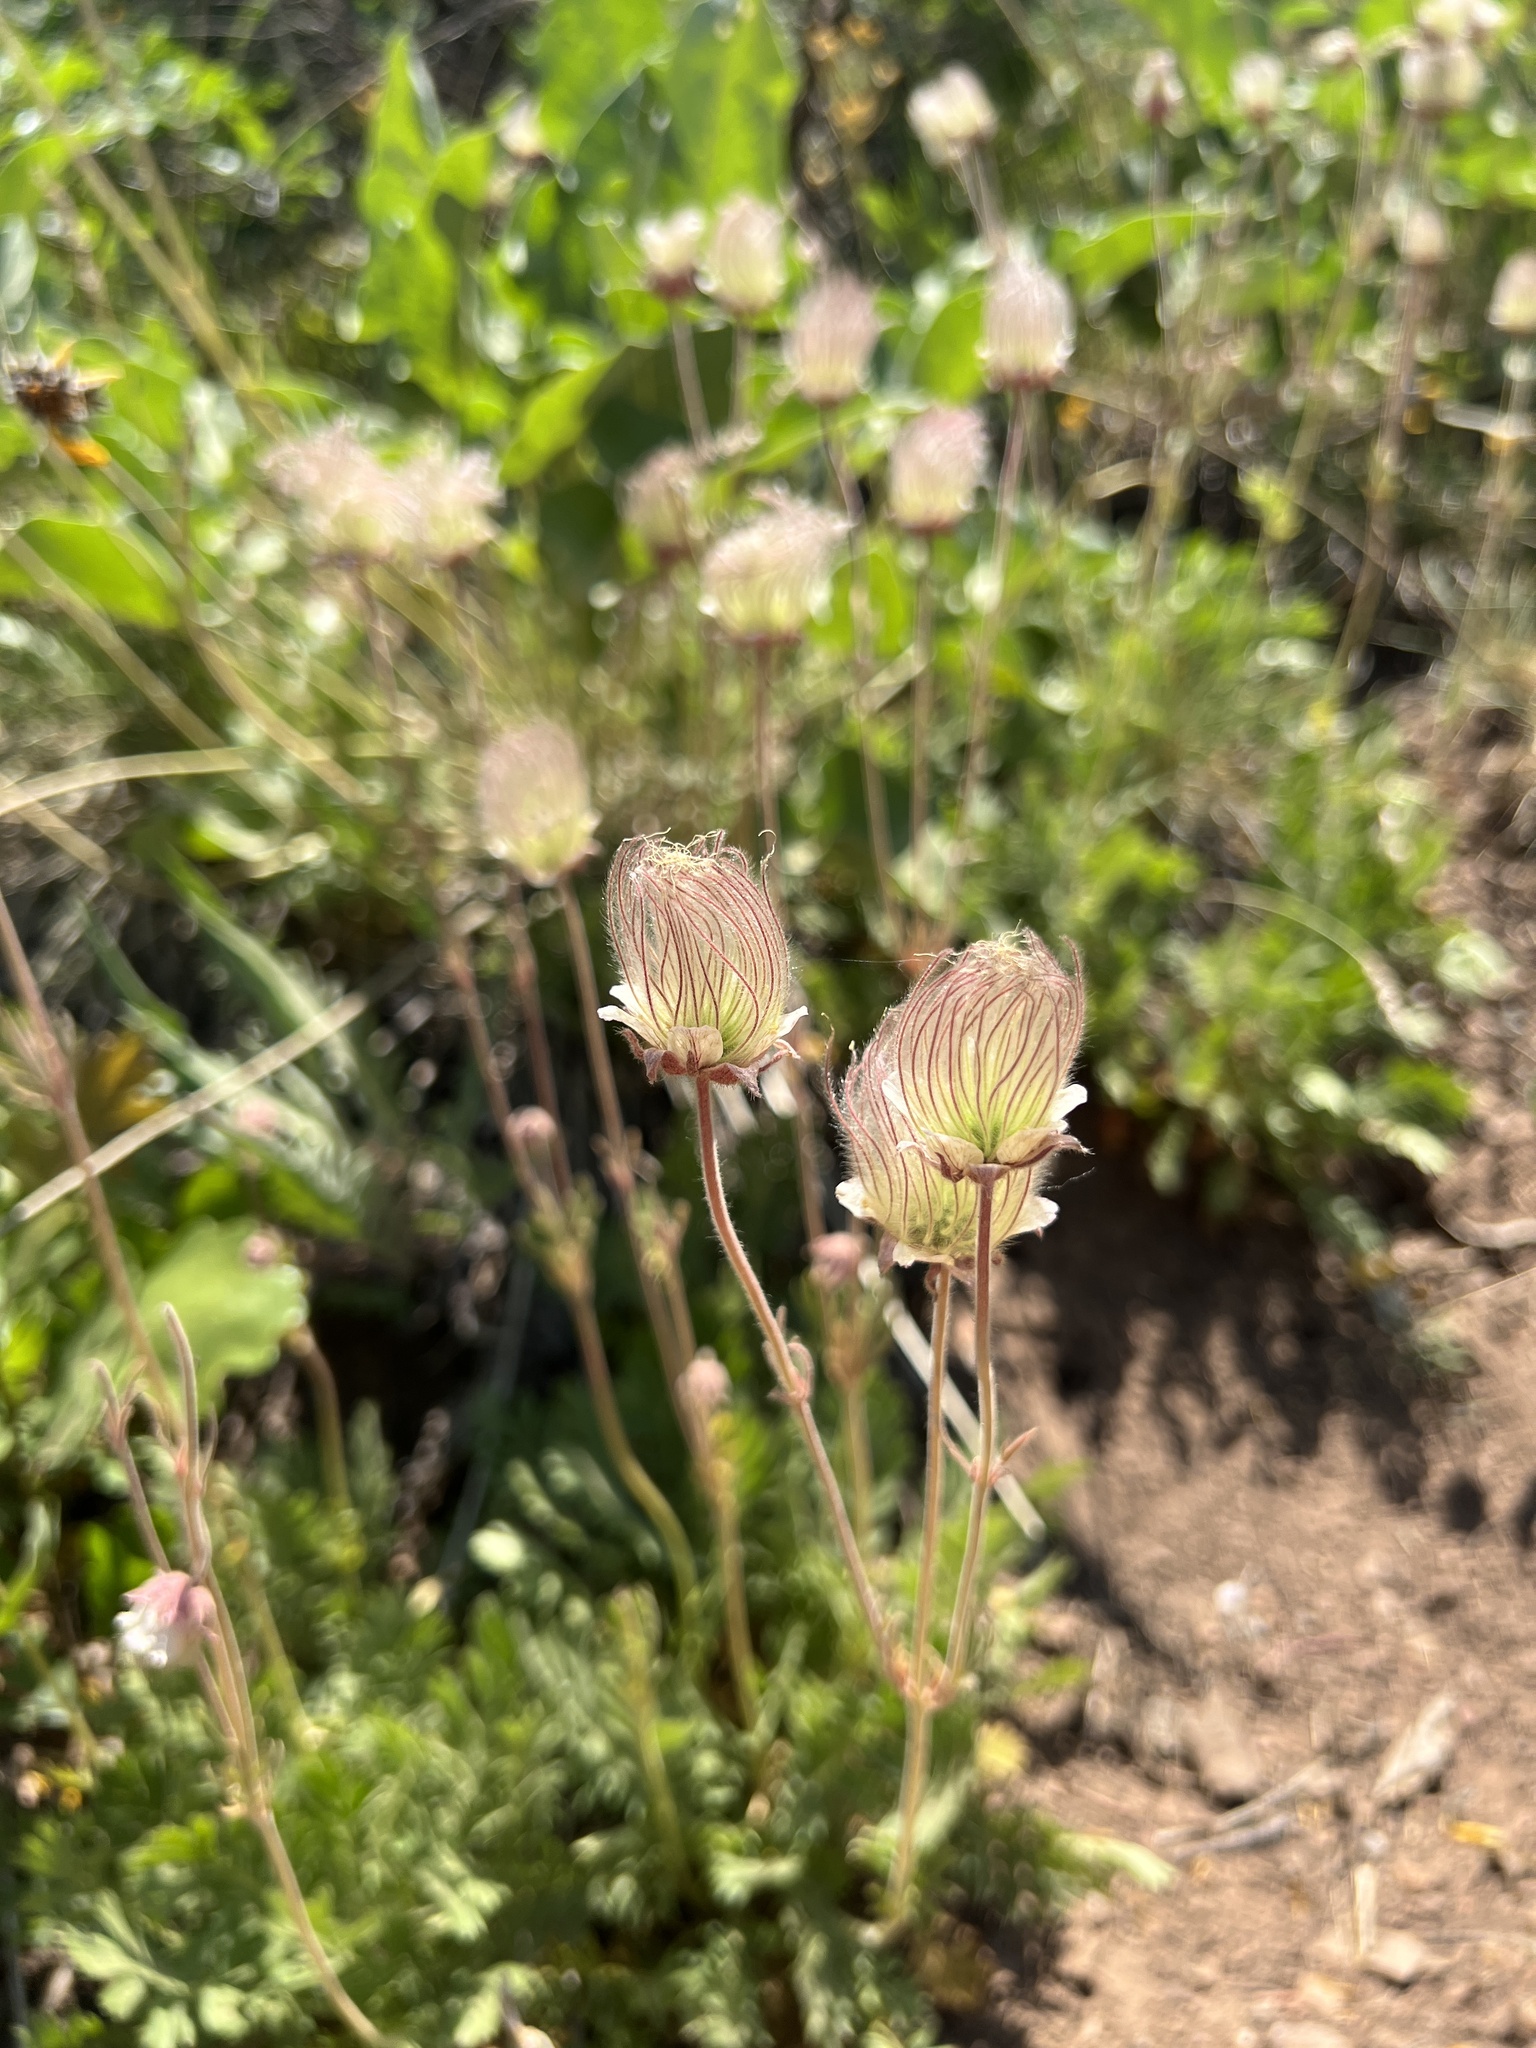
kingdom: Plantae
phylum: Tracheophyta
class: Magnoliopsida
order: Rosales
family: Rosaceae
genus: Geum
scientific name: Geum triflorum
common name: Old man's whiskers
